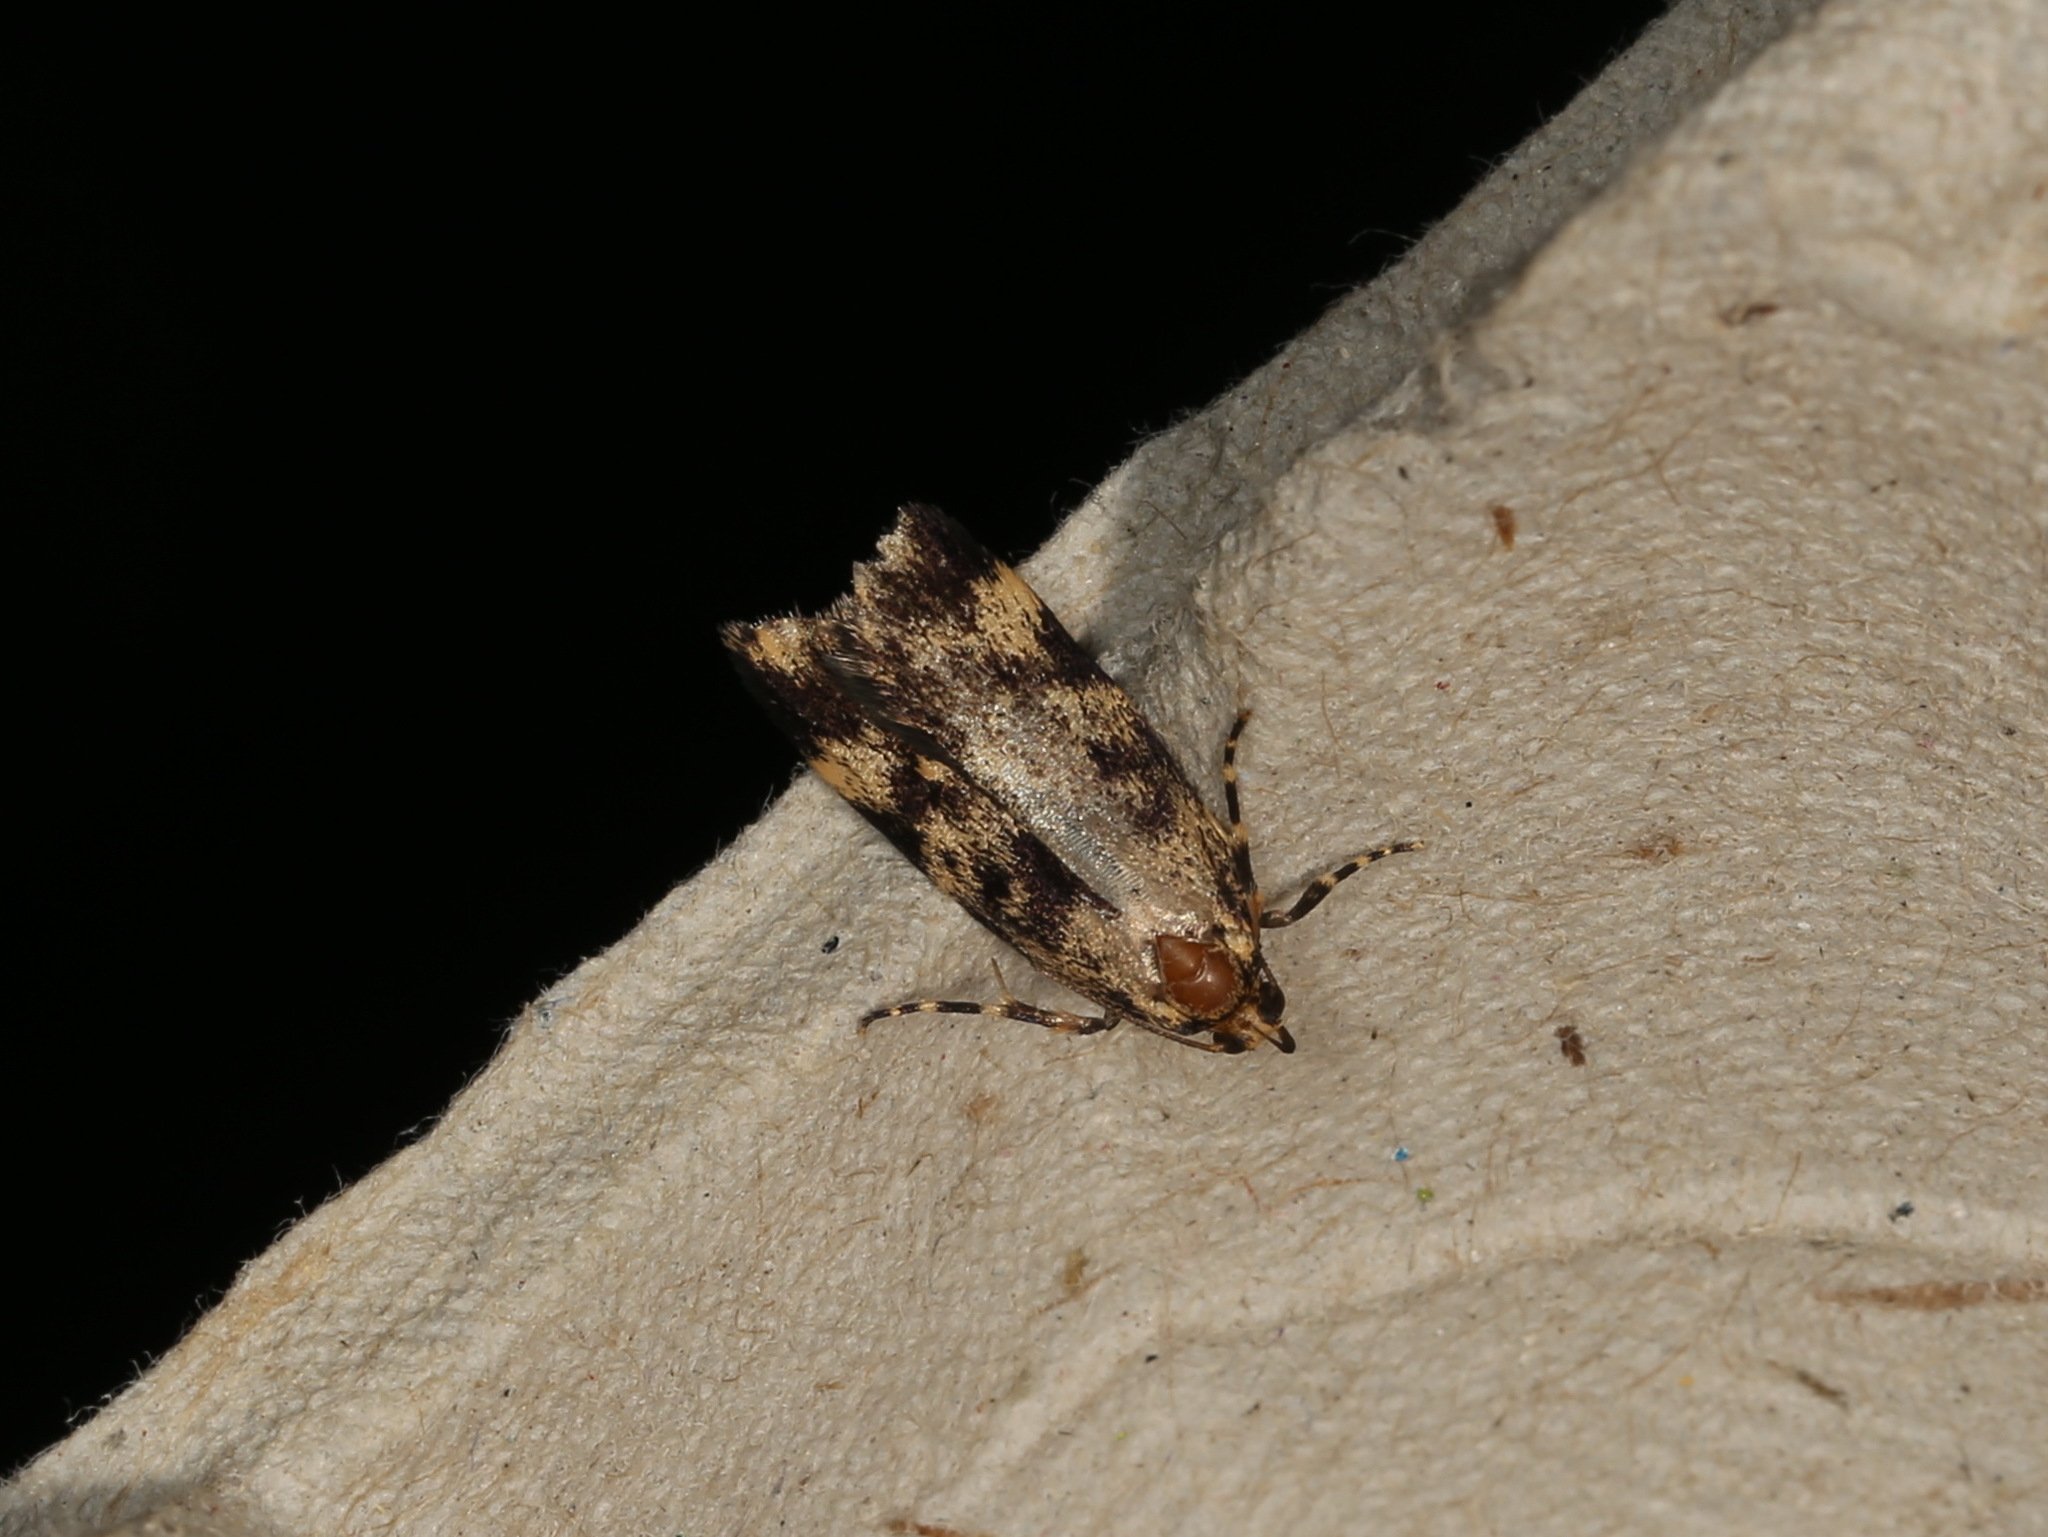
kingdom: Animalia
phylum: Arthropoda
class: Insecta
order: Lepidoptera
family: Oecophoridae
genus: Barea
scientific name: Barea codrella
